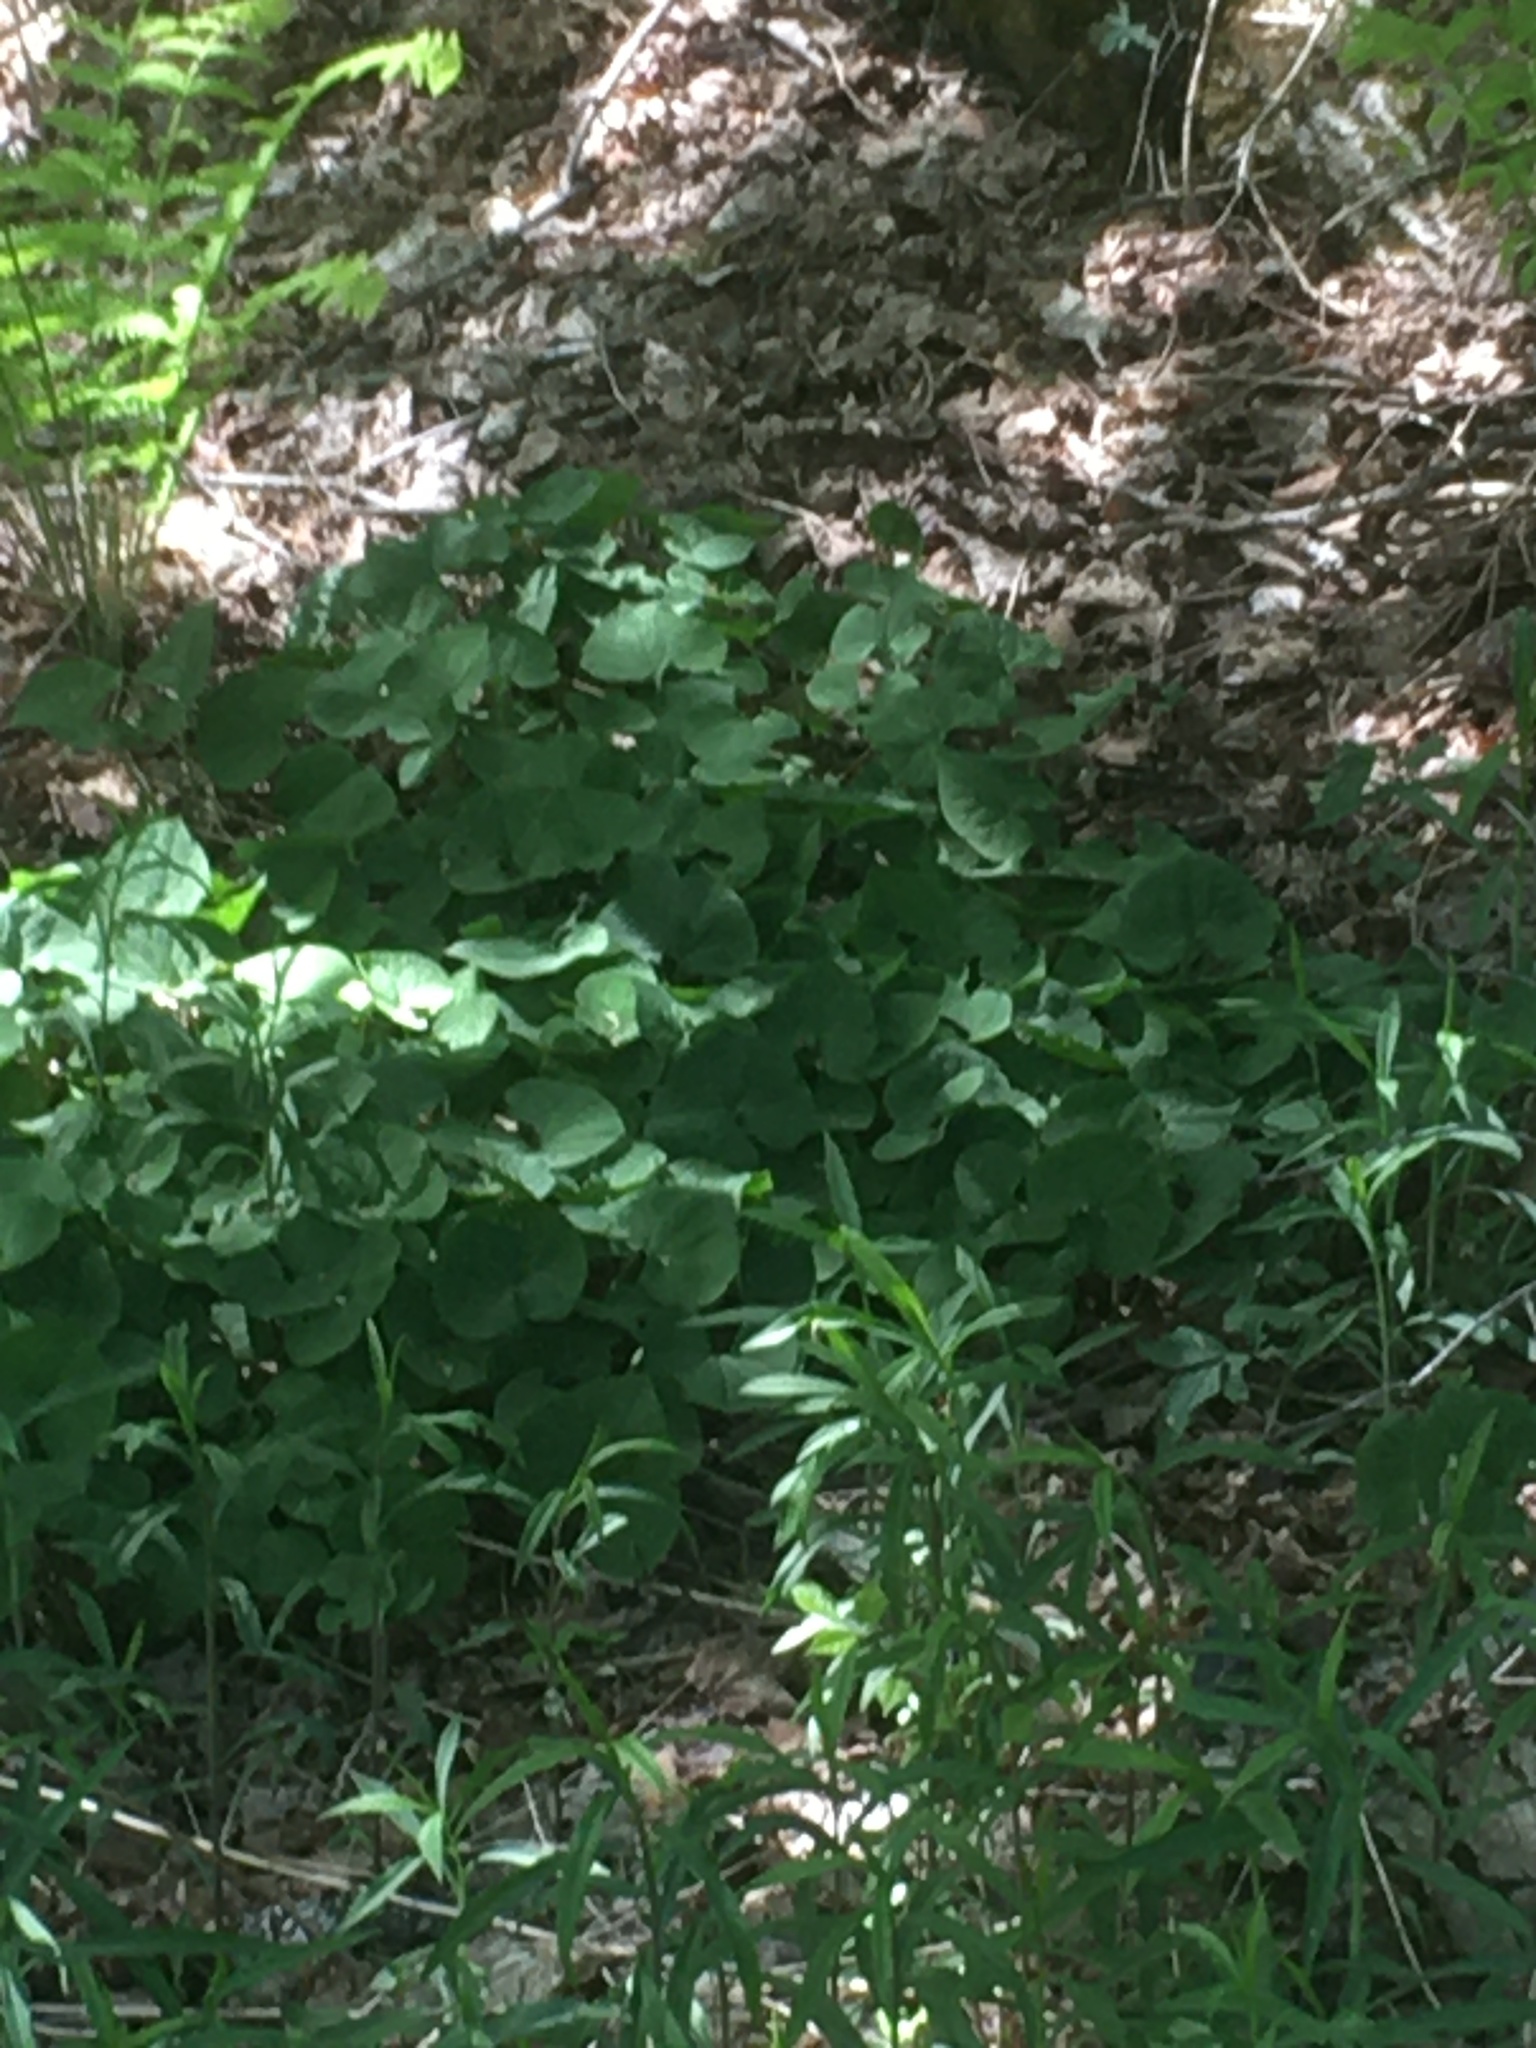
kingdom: Plantae
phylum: Tracheophyta
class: Magnoliopsida
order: Piperales
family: Aristolochiaceae
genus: Asarum
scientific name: Asarum canadense
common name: Wild ginger
